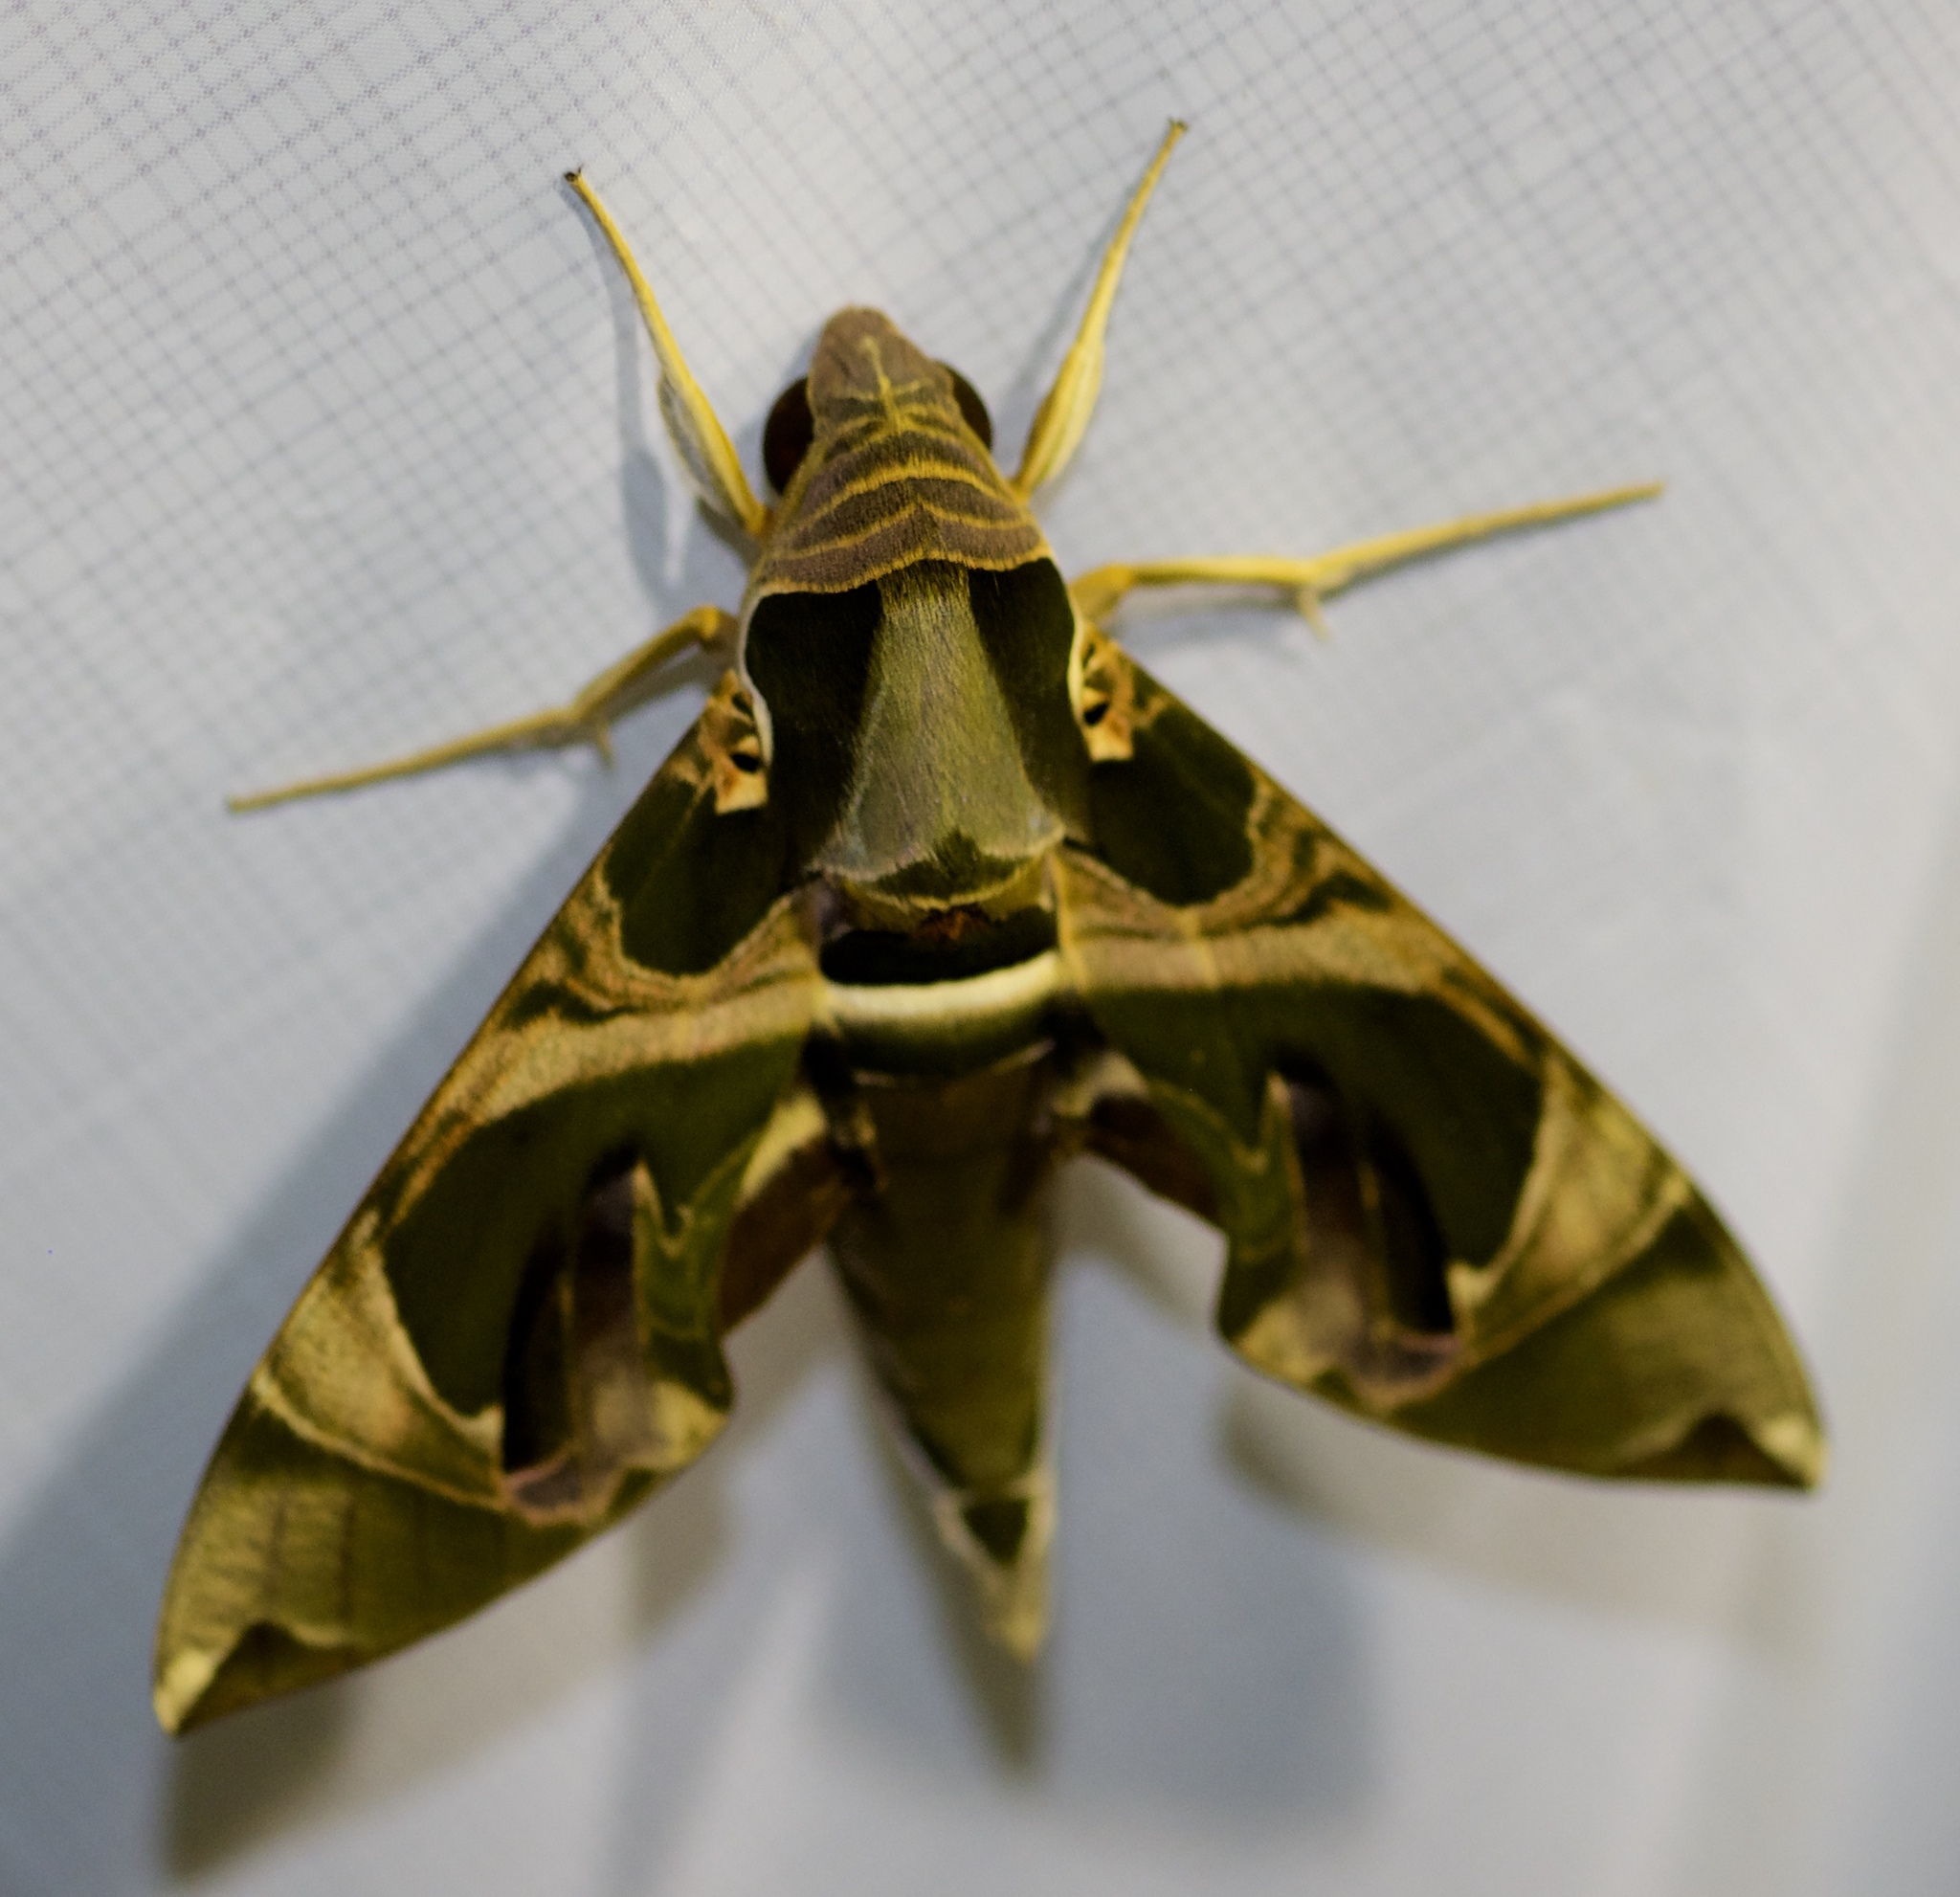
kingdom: Animalia
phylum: Arthropoda
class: Insecta
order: Lepidoptera
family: Sphingidae
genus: Daphnis
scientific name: Daphnis hypothous
